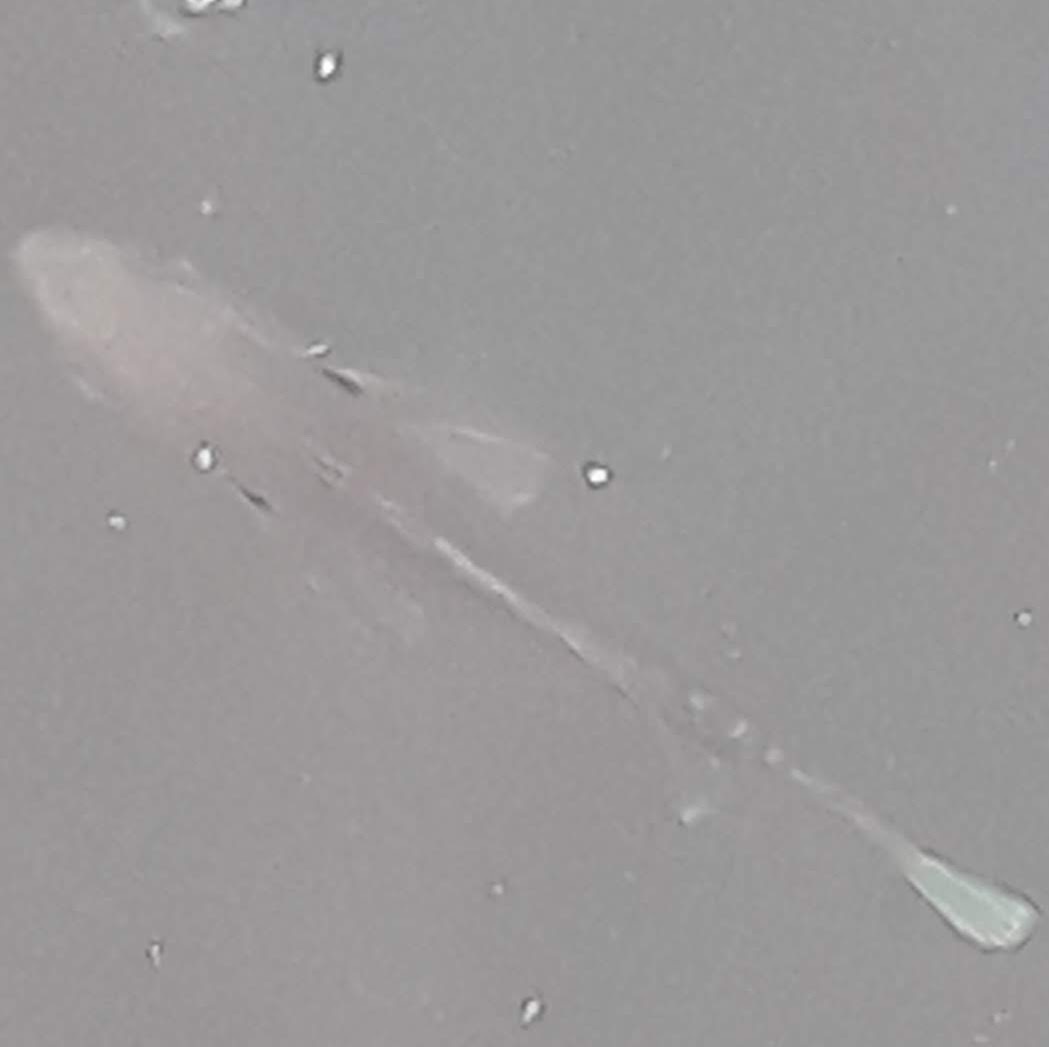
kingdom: Animalia
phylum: Chordata
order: Perciformes
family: Centrarchidae
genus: Lepomis
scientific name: Lepomis
